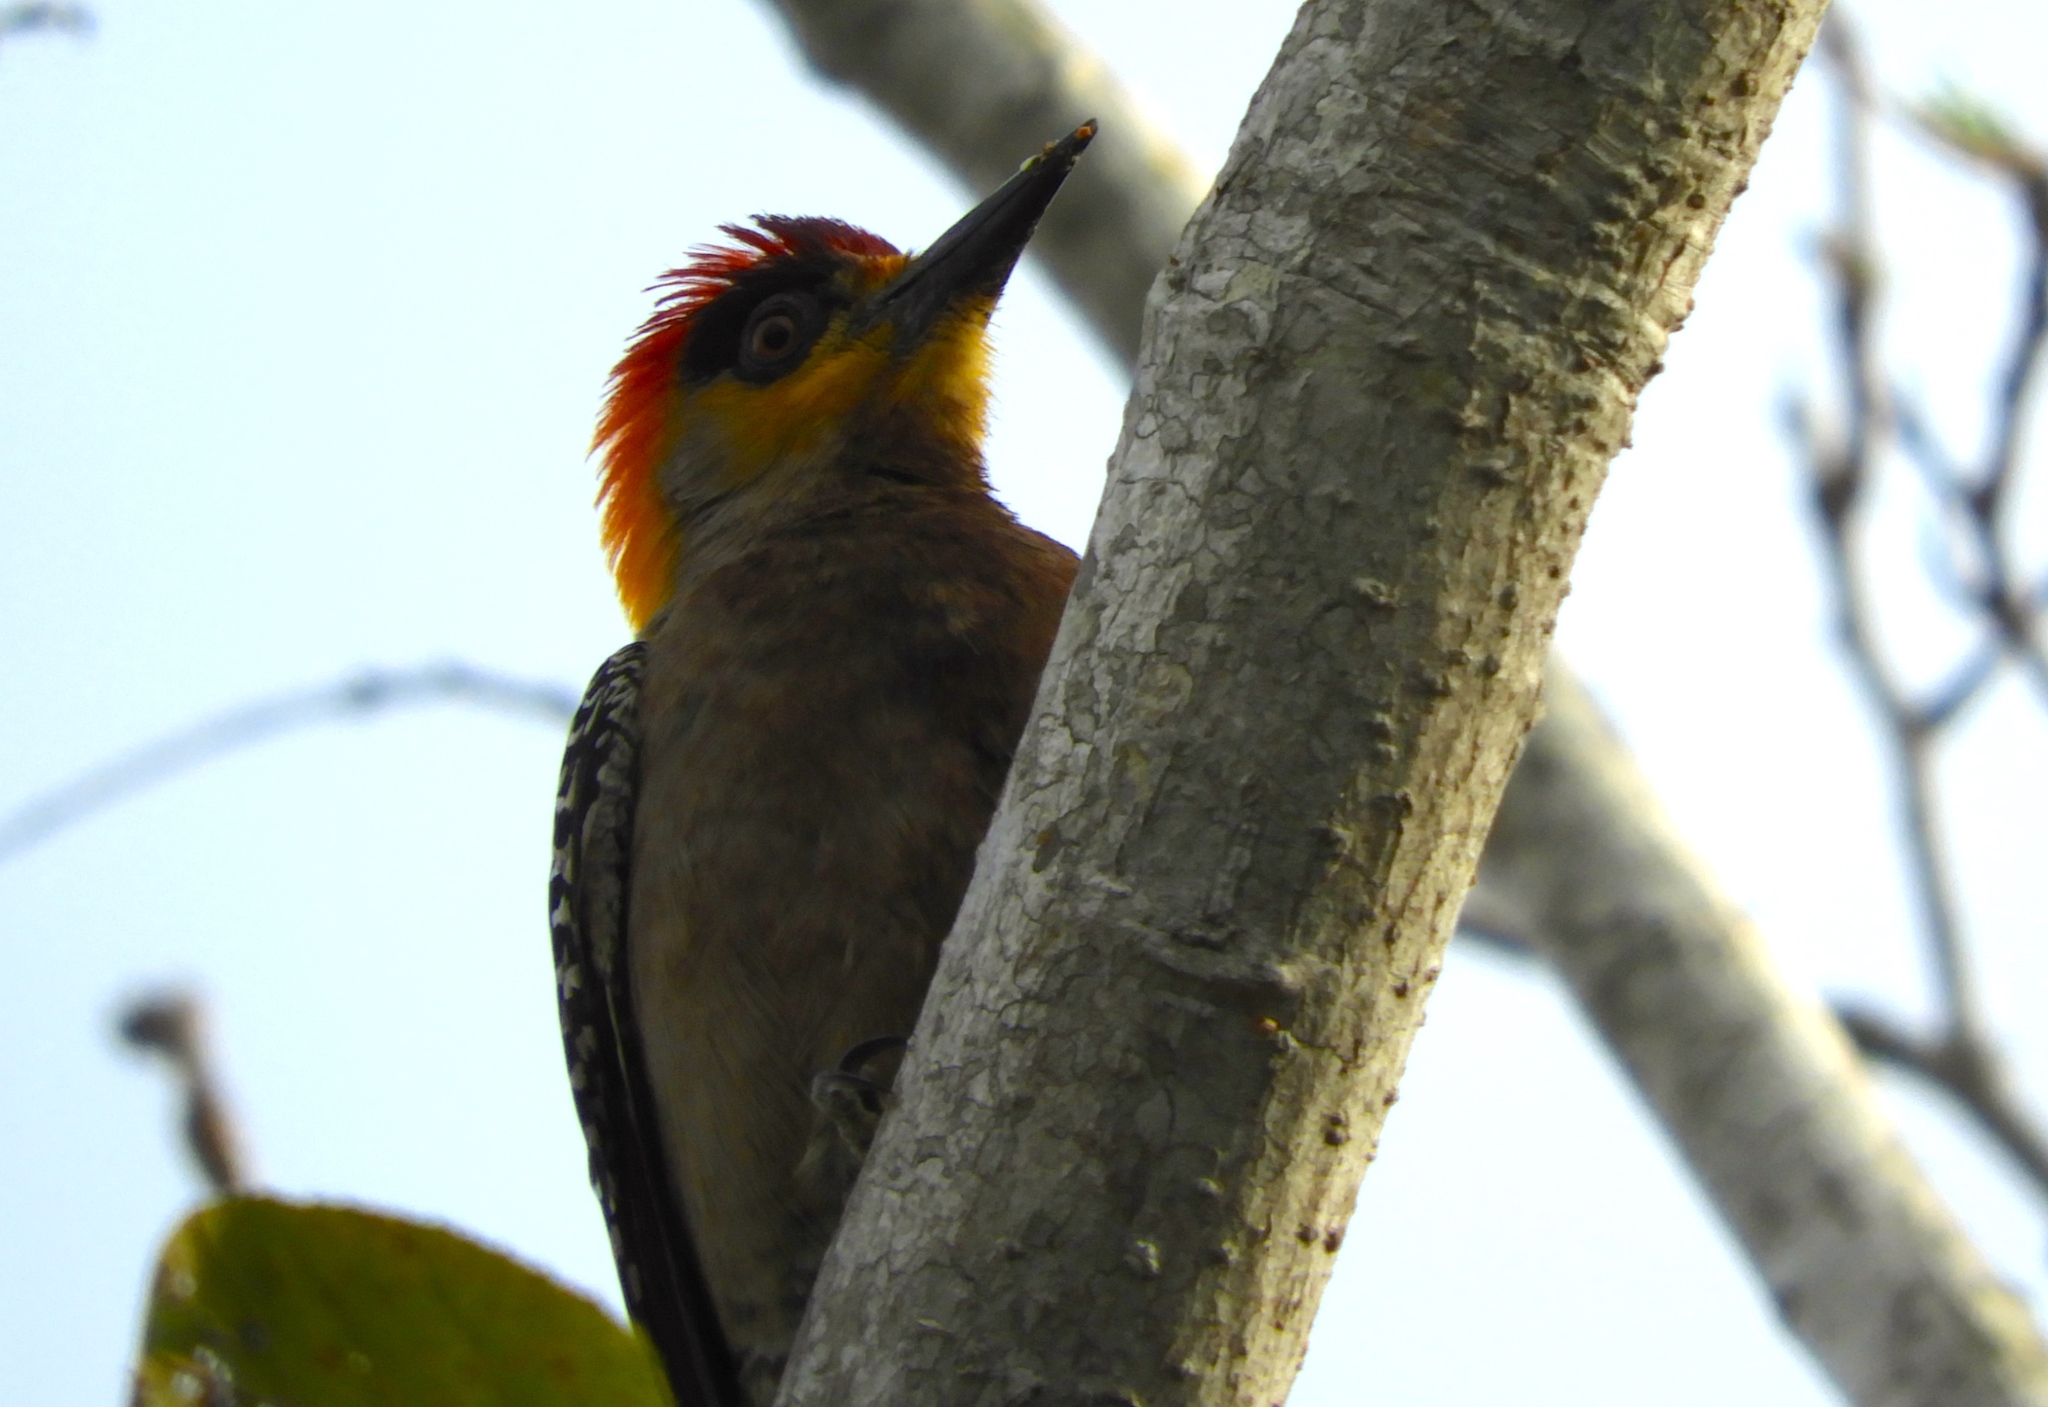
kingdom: Animalia
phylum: Chordata
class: Aves
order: Piciformes
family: Picidae
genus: Melanerpes
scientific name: Melanerpes chrysogenys
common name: Golden-cheeked woodpecker
